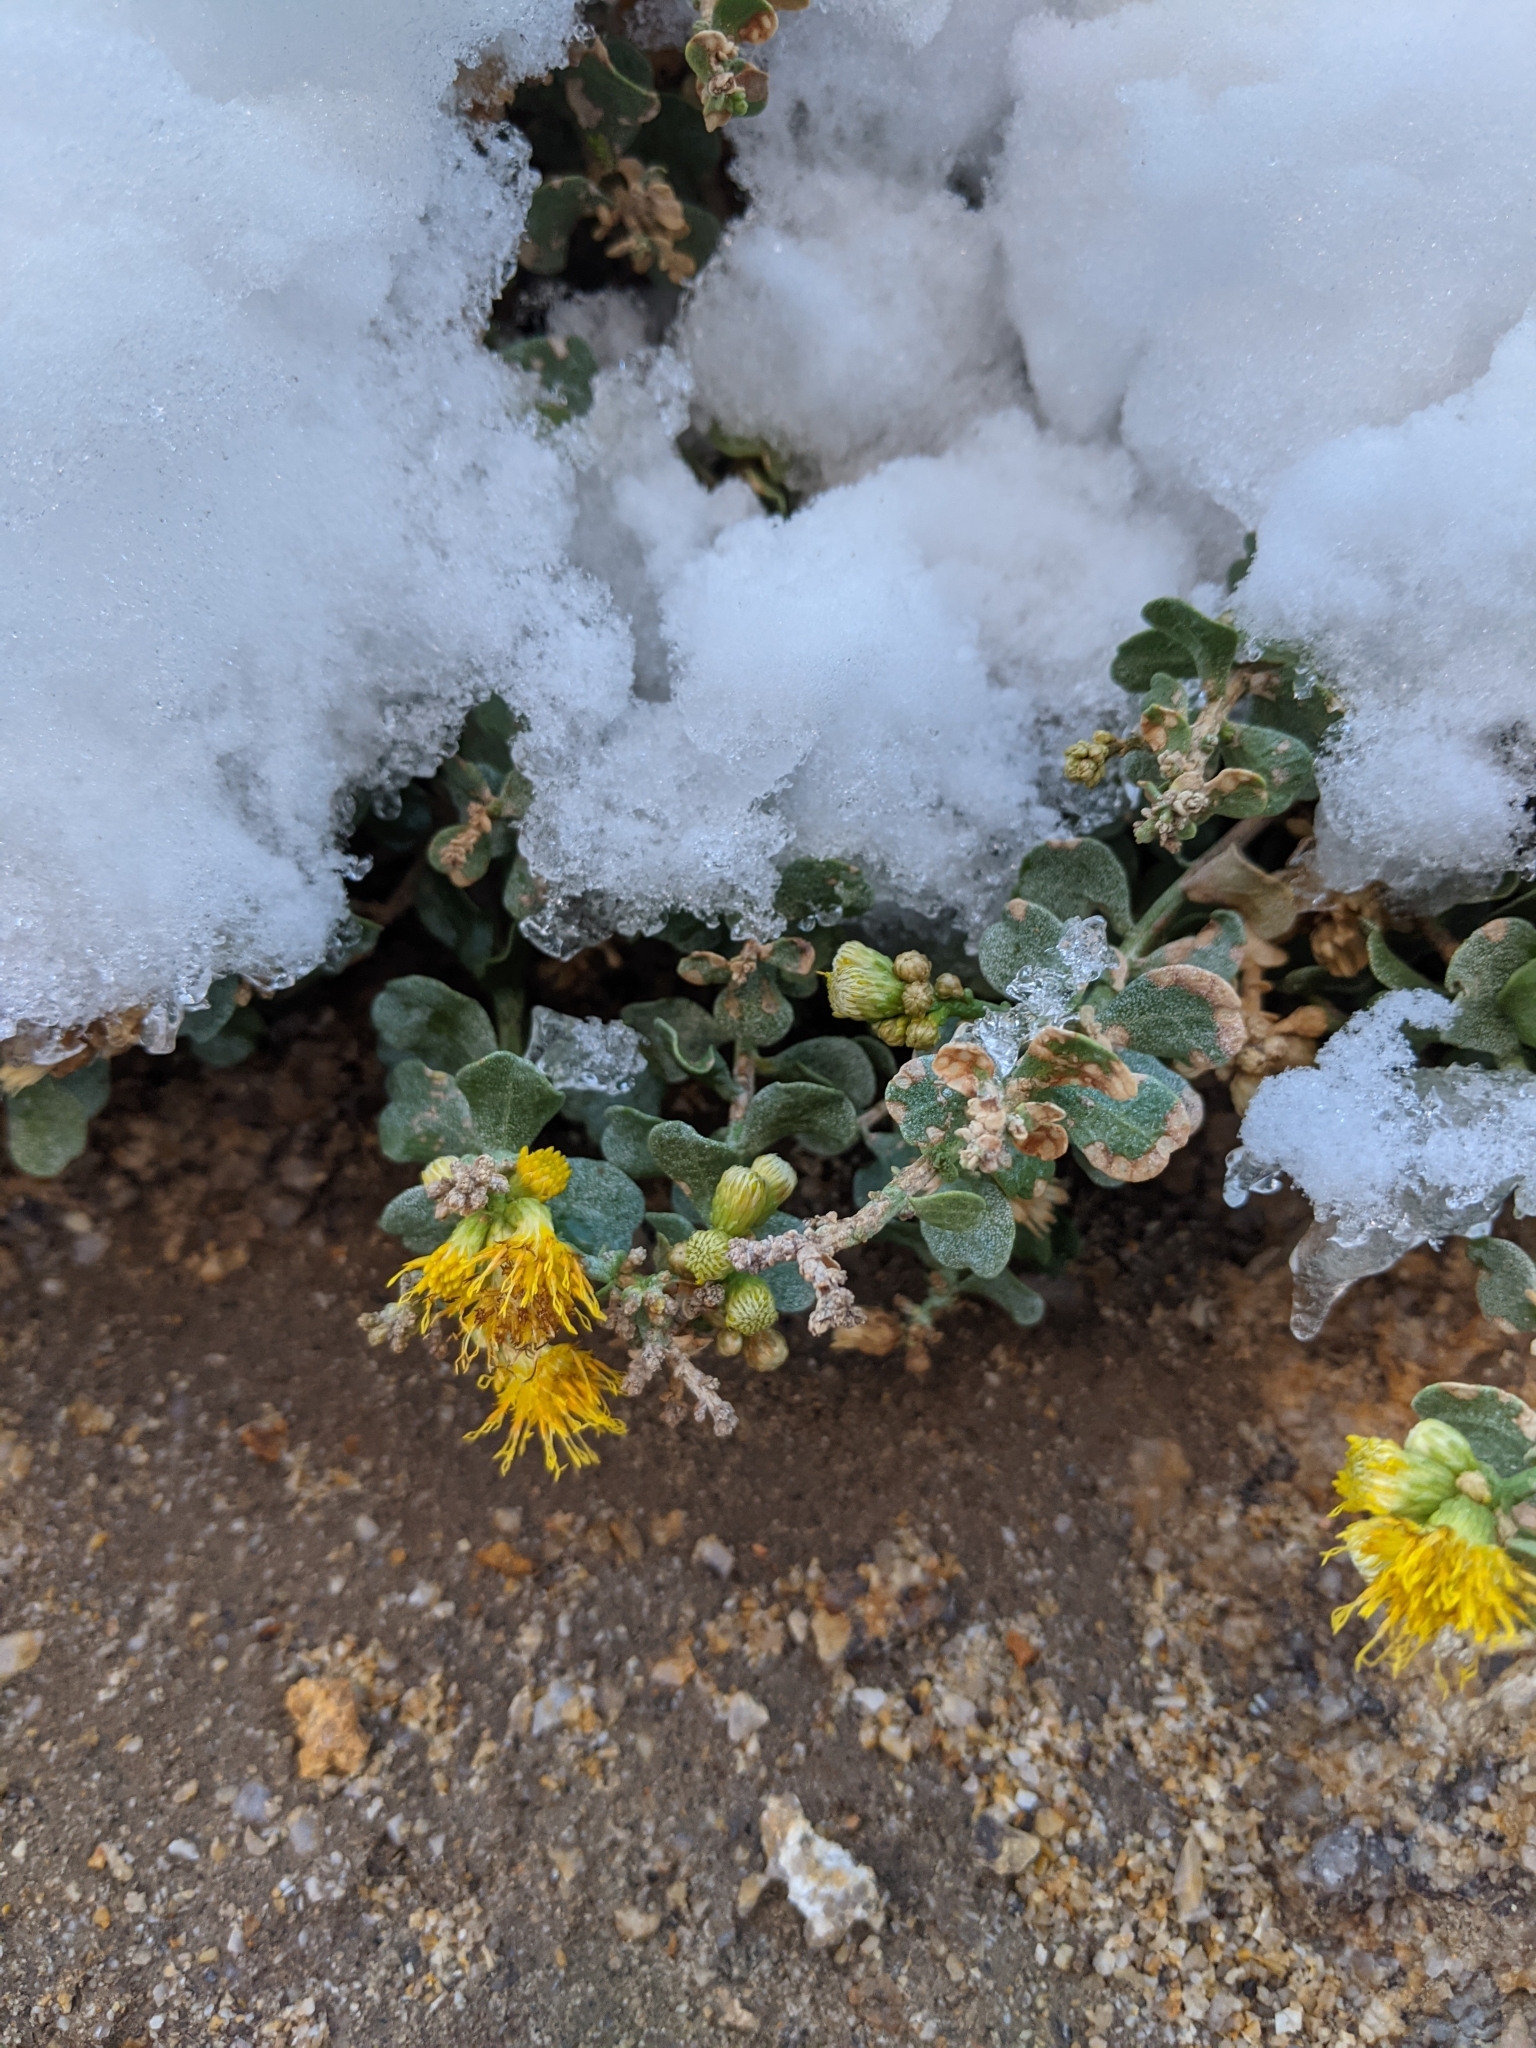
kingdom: Plantae
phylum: Tracheophyta
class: Magnoliopsida
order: Asterales
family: Asteraceae
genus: Ericameria
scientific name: Ericameria cuneata
